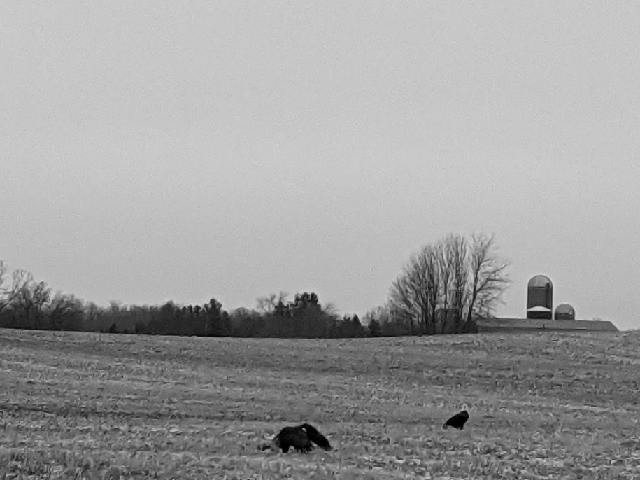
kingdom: Animalia
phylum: Chordata
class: Aves
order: Accipitriformes
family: Accipitridae
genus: Haliaeetus
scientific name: Haliaeetus leucocephalus
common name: Bald eagle
